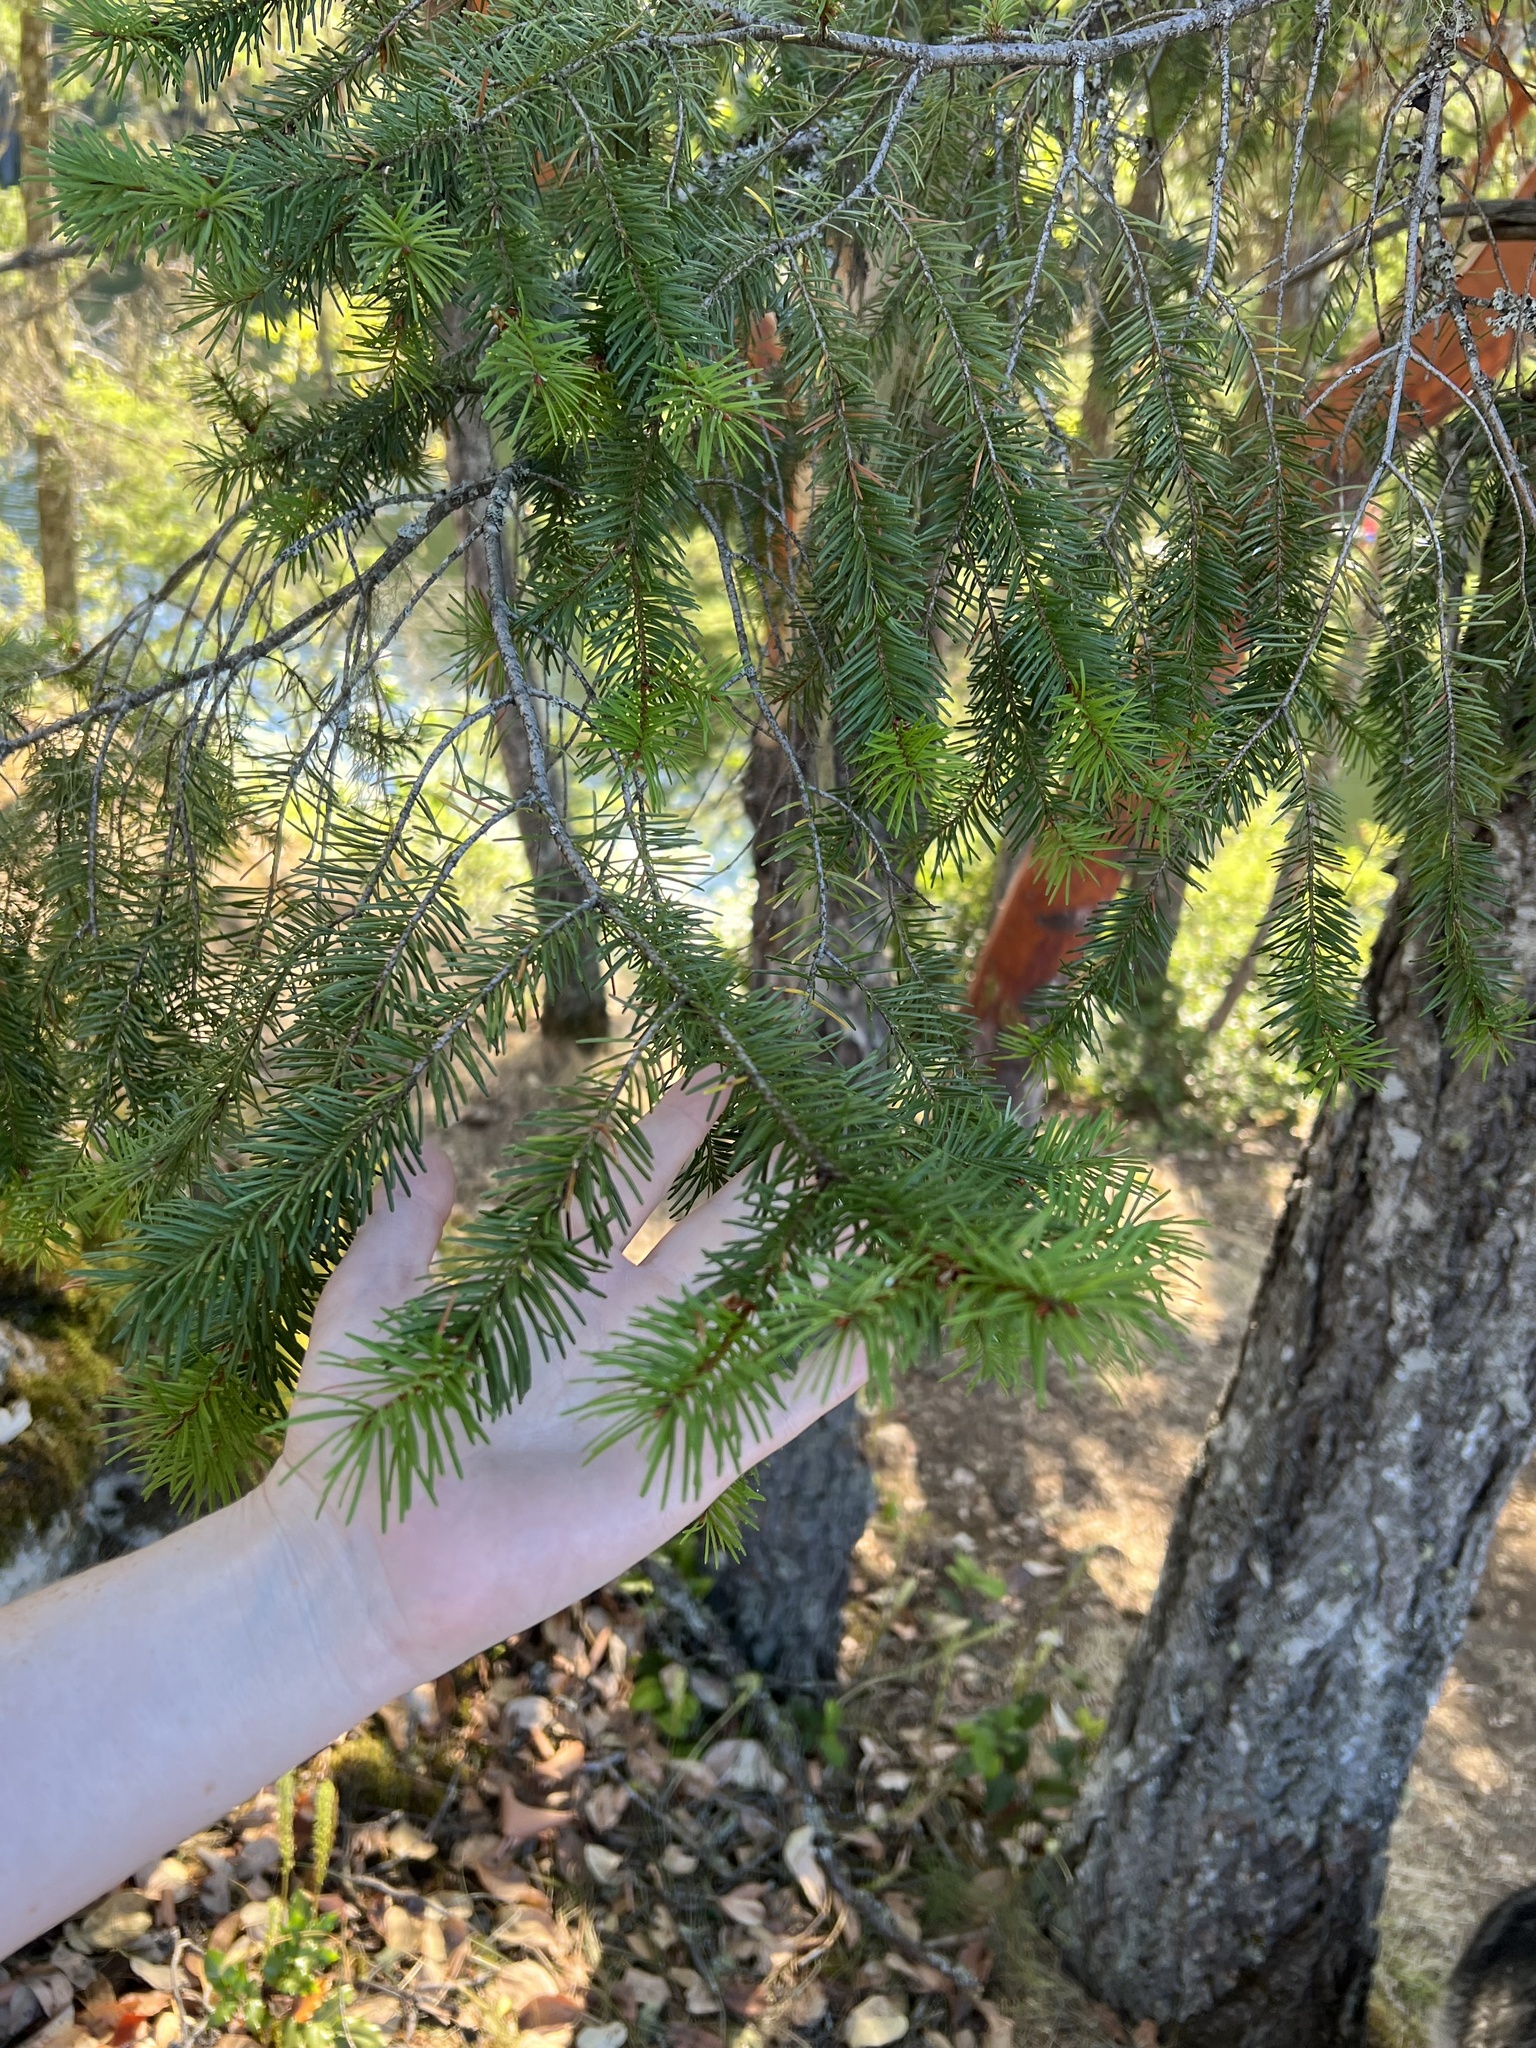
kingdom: Plantae
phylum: Tracheophyta
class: Pinopsida
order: Pinales
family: Pinaceae
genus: Pseudotsuga
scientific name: Pseudotsuga menziesii
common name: Douglas fir
